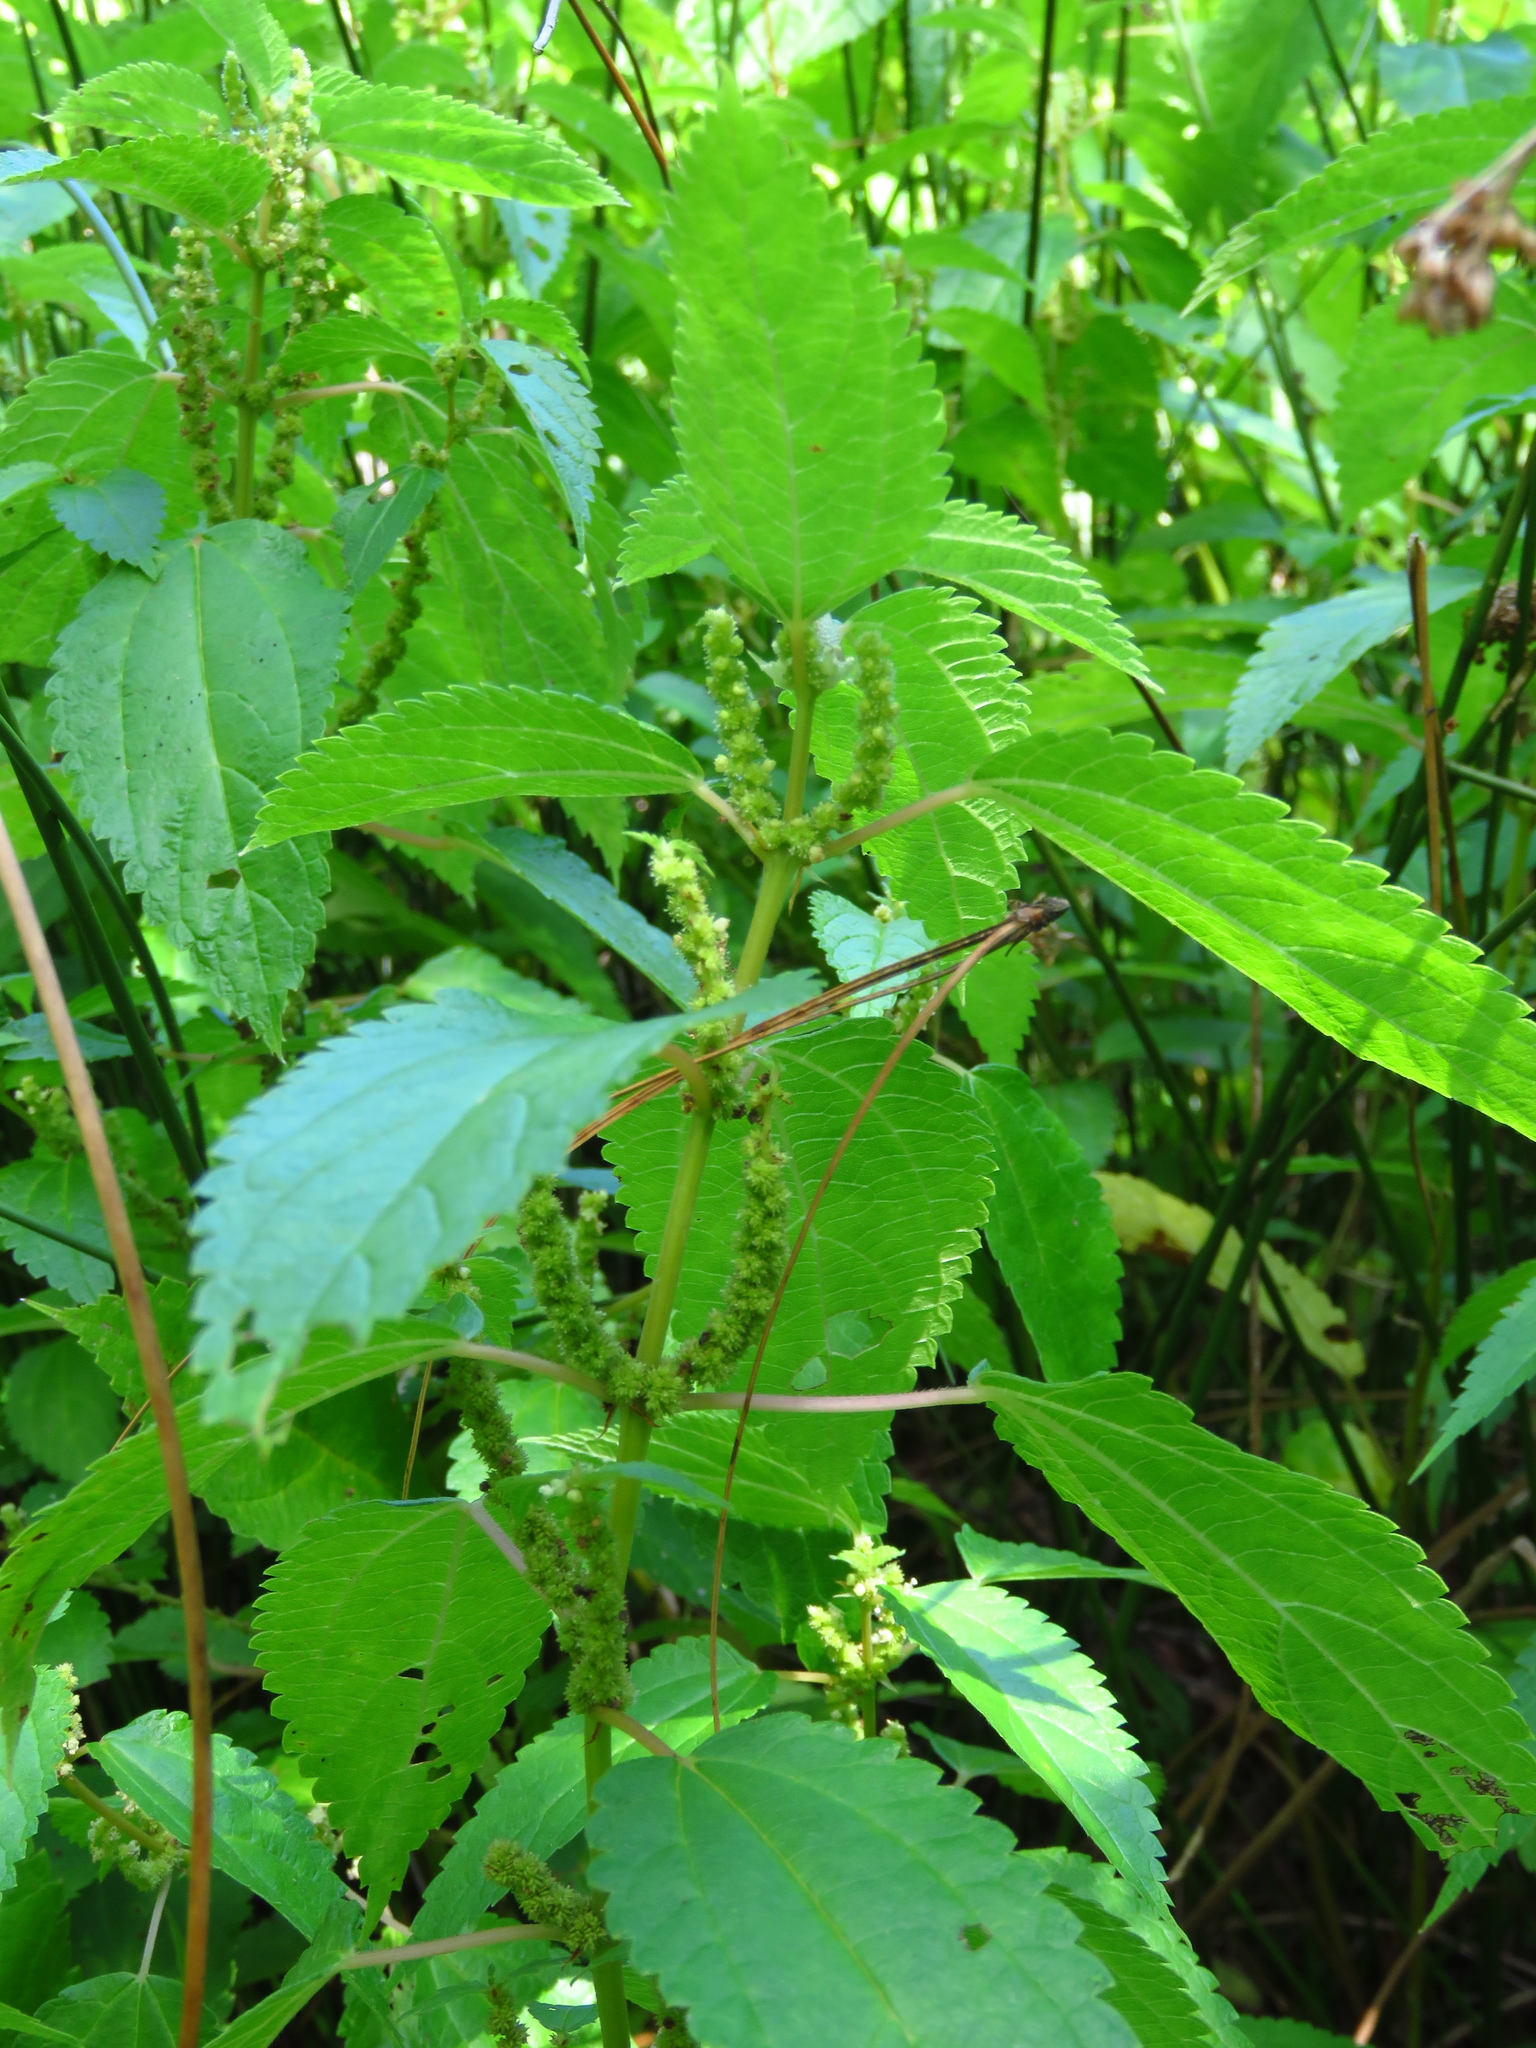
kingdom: Plantae
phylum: Tracheophyta
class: Magnoliopsida
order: Rosales
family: Urticaceae
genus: Boehmeria
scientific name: Boehmeria cylindrica
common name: Bog-hemp
